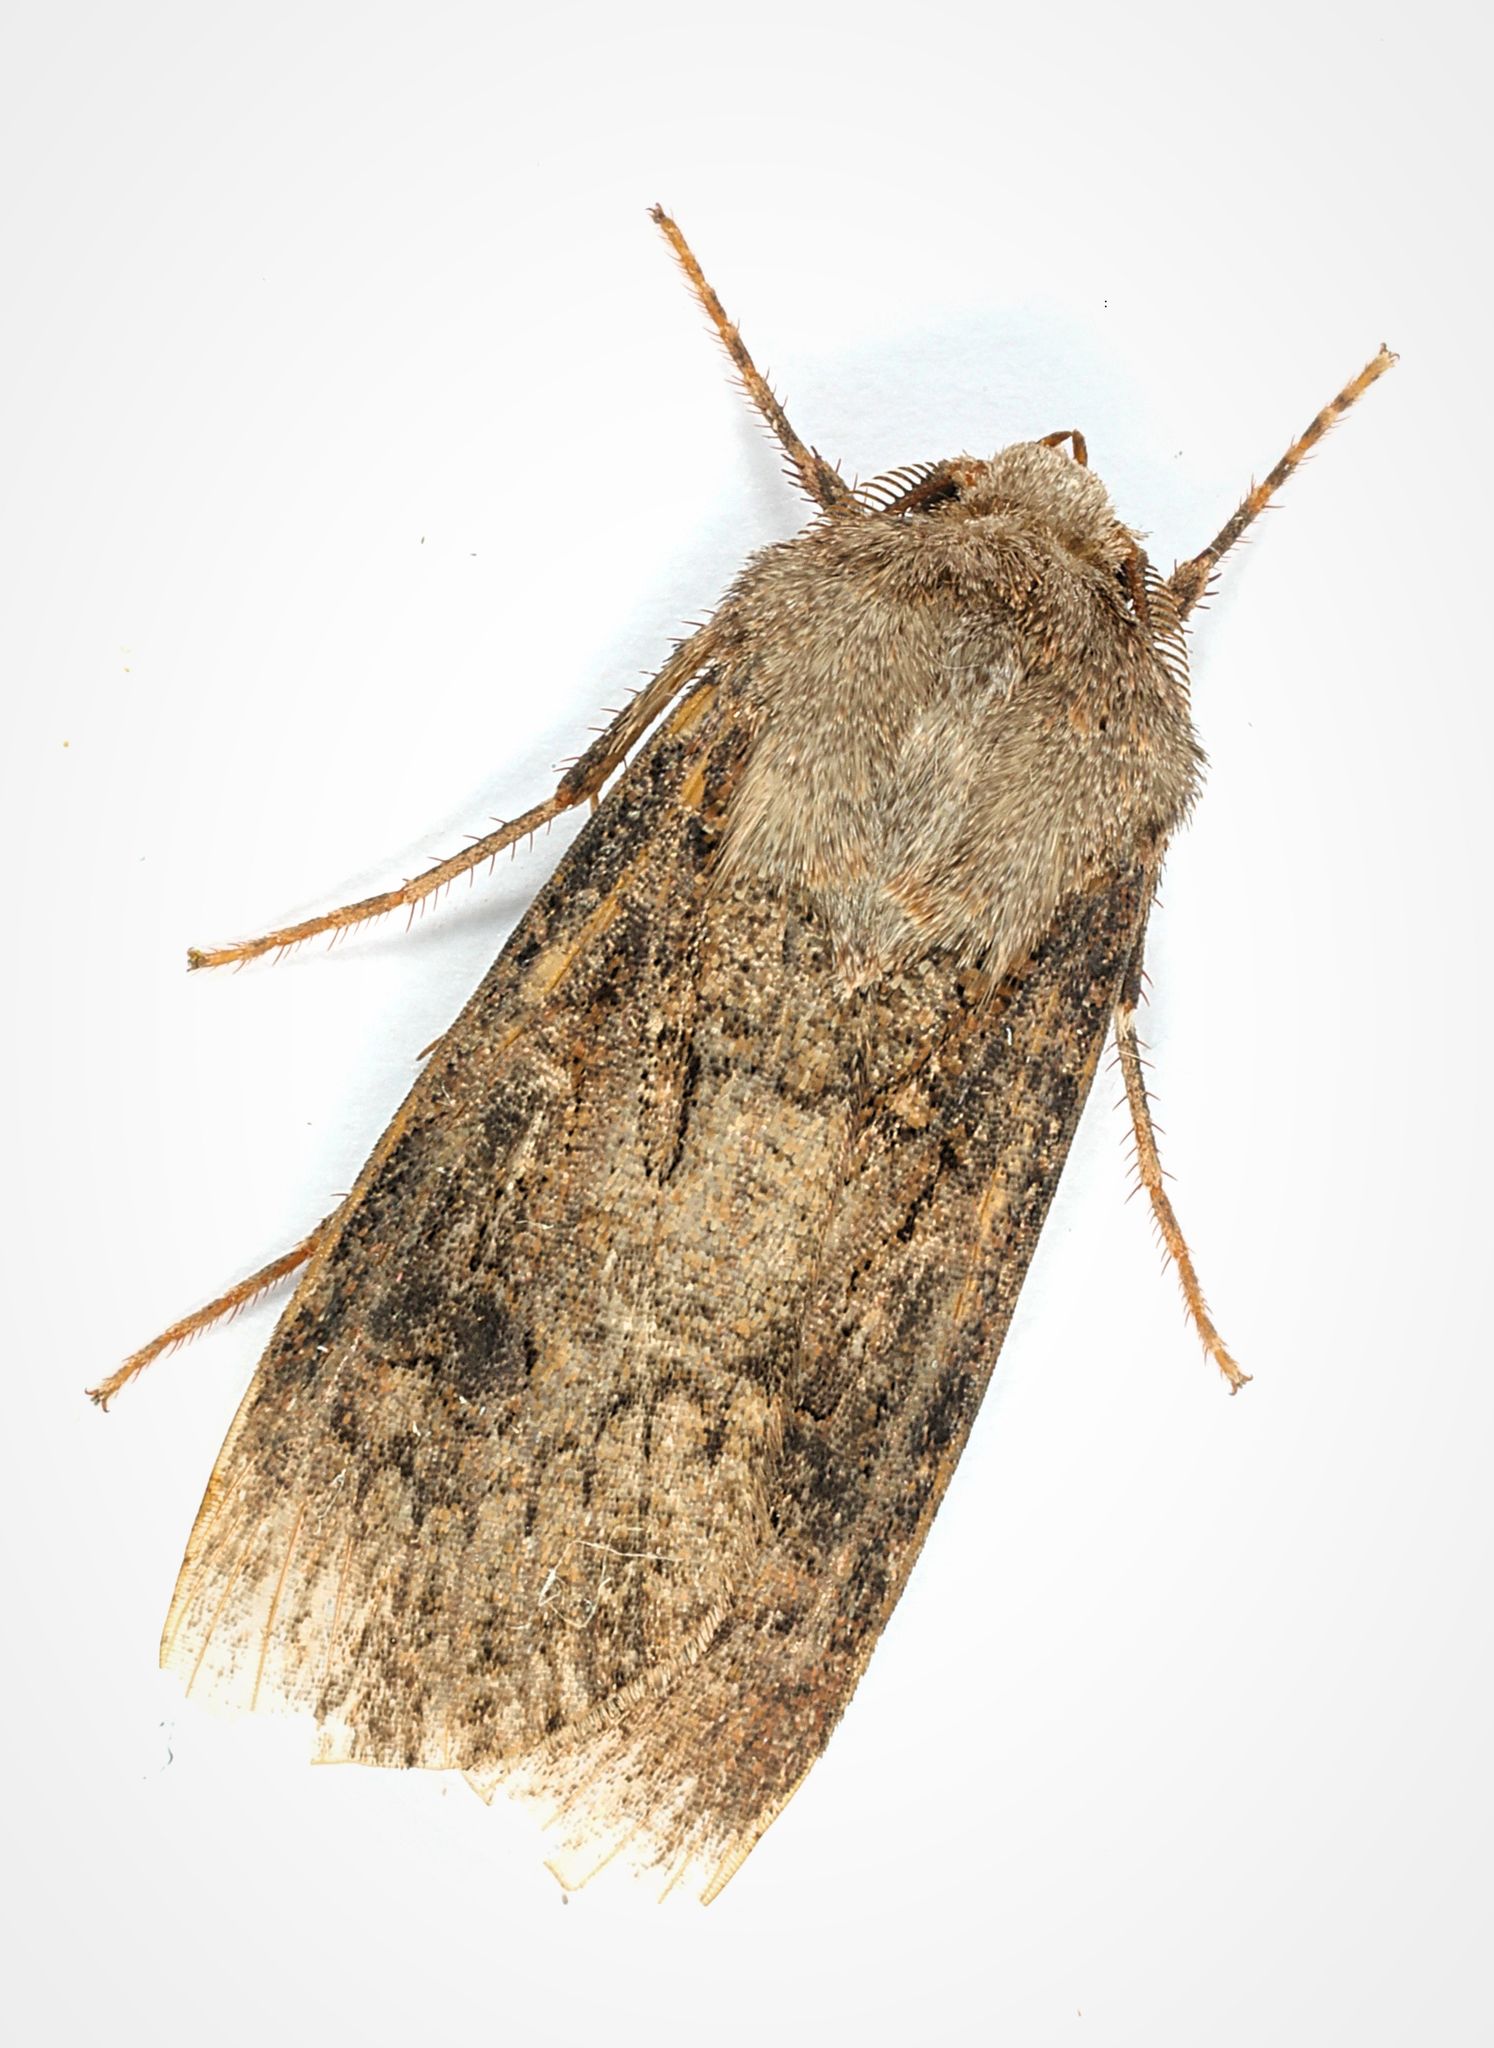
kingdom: Animalia
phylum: Arthropoda
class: Insecta
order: Lepidoptera
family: Noctuidae
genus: Agrotis
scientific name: Agrotis segetum
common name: Turnip moth
